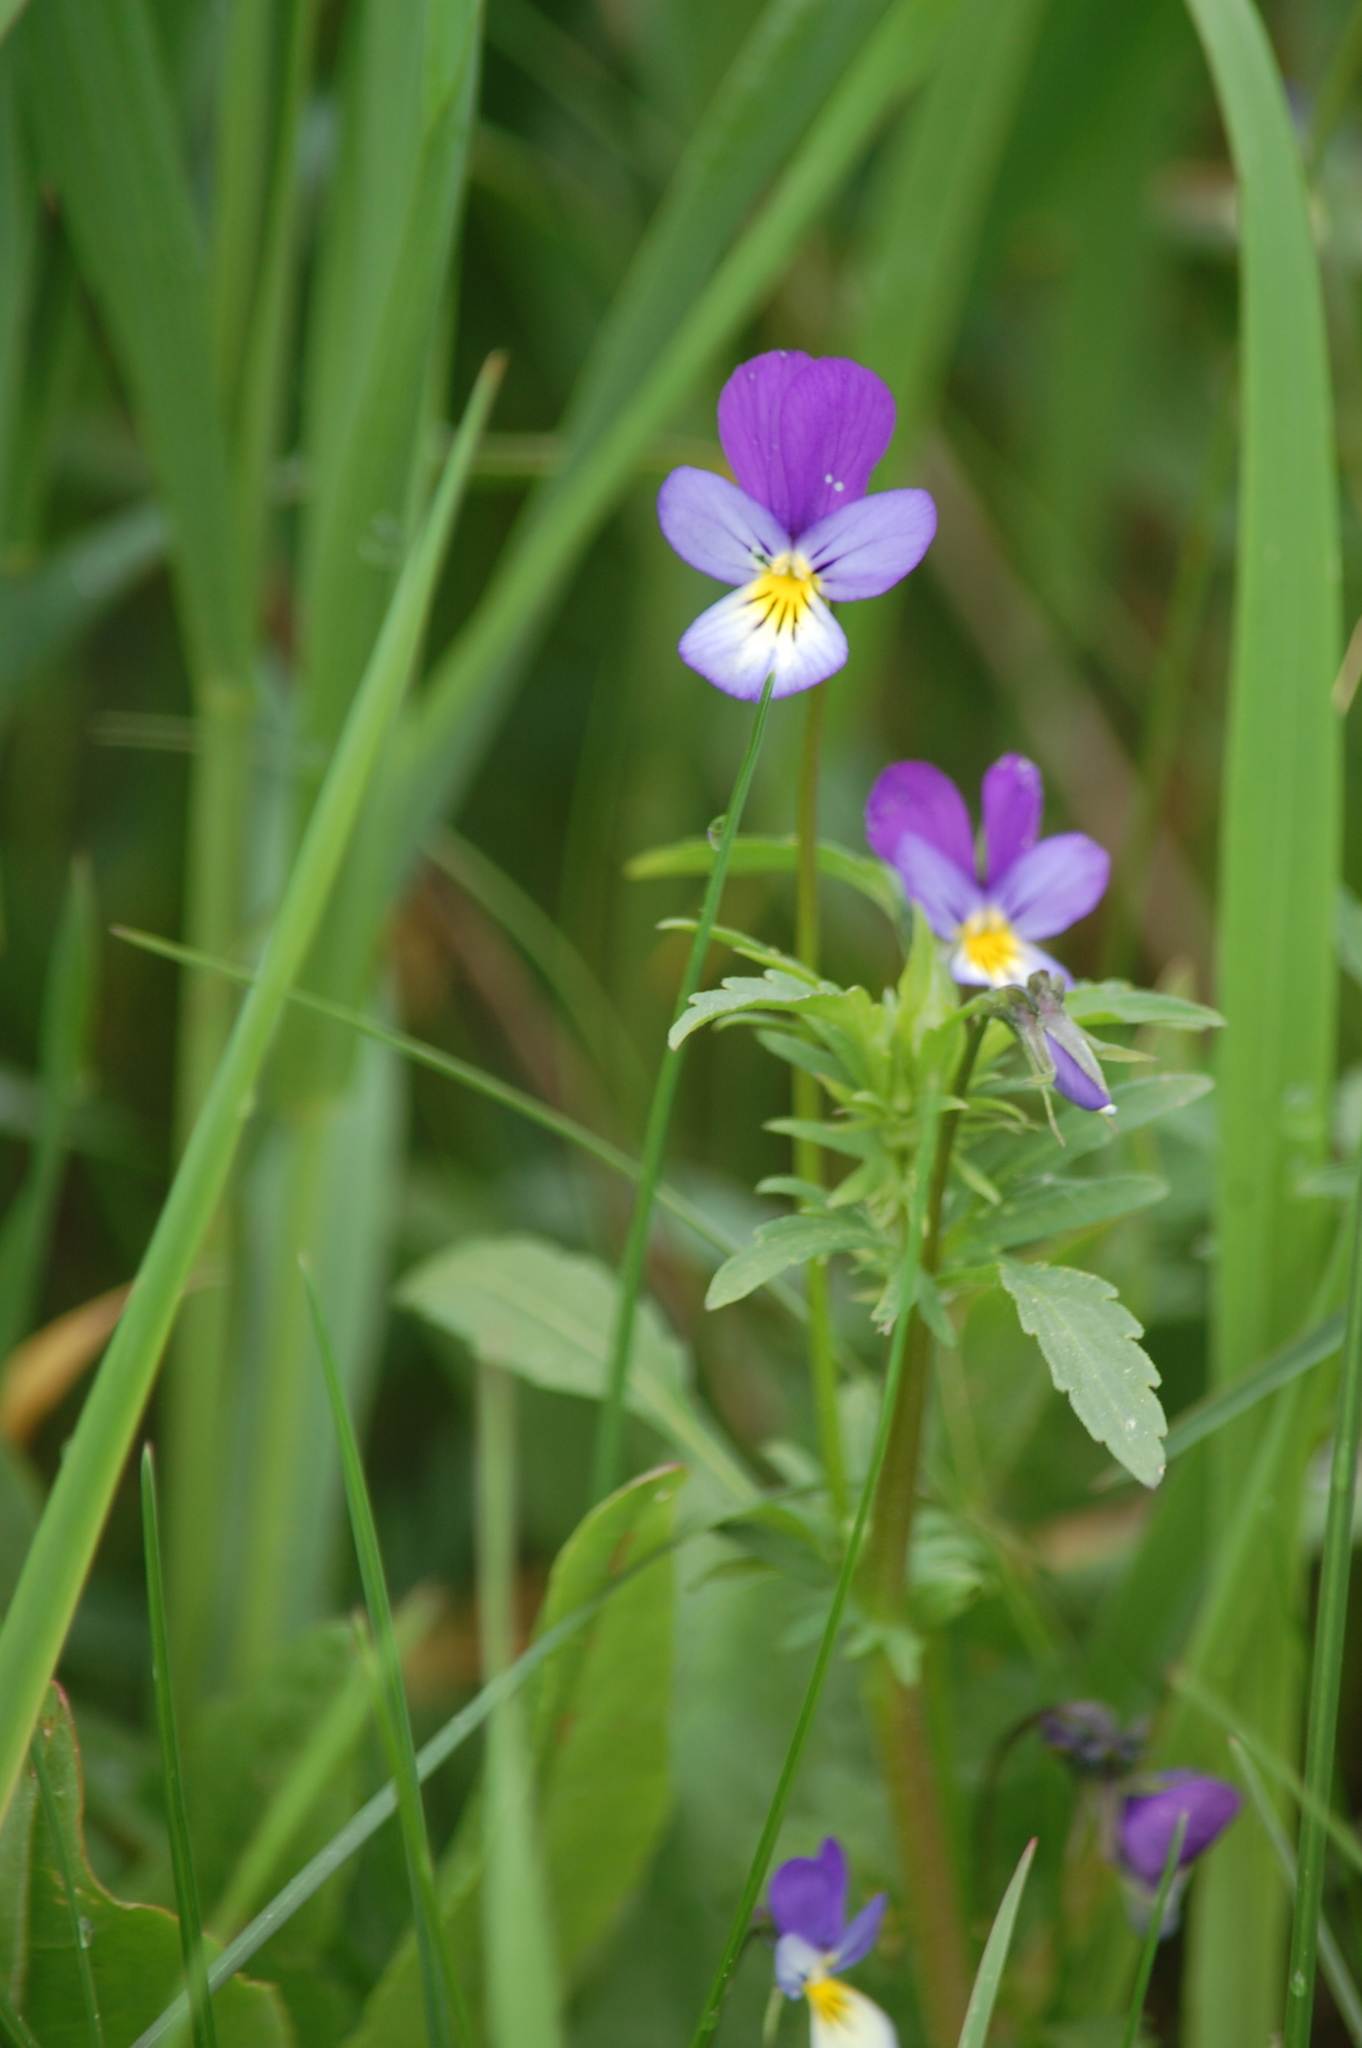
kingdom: Plantae
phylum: Tracheophyta
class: Magnoliopsida
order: Malpighiales
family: Violaceae
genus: Viola
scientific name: Viola tricolor
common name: Pansy
